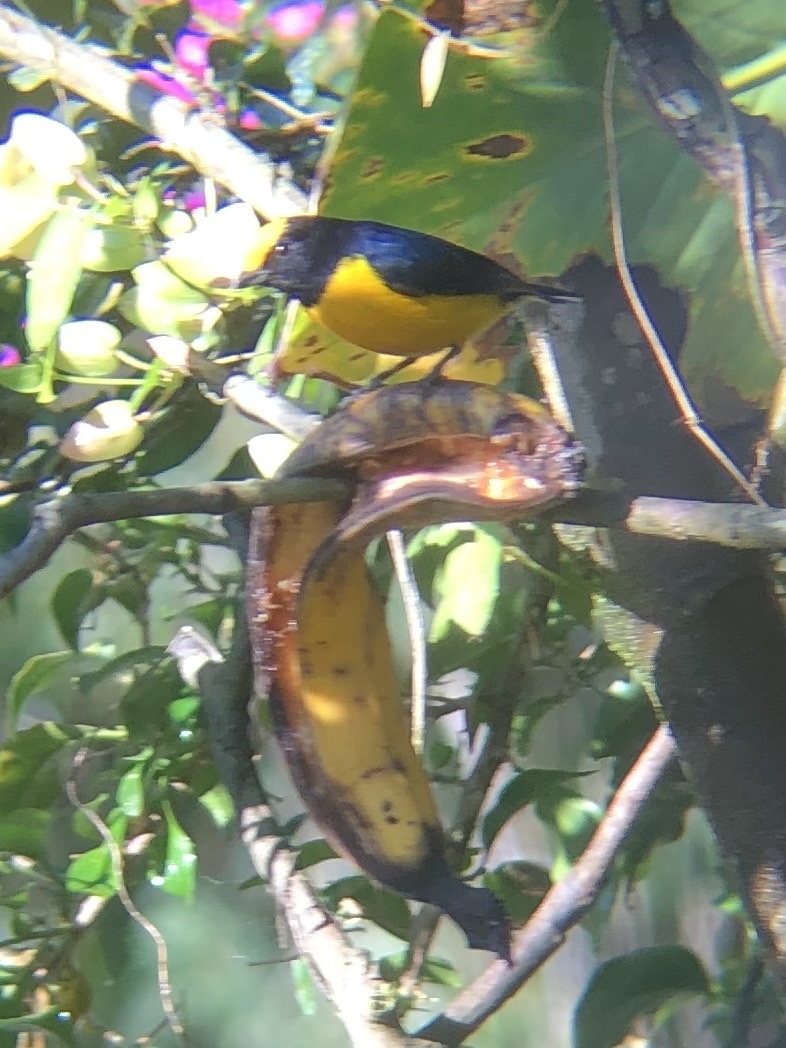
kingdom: Animalia
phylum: Chordata
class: Aves
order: Passeriformes
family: Fringillidae
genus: Euphonia
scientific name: Euphonia xanthogaster
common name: Orange-bellied euphonia
